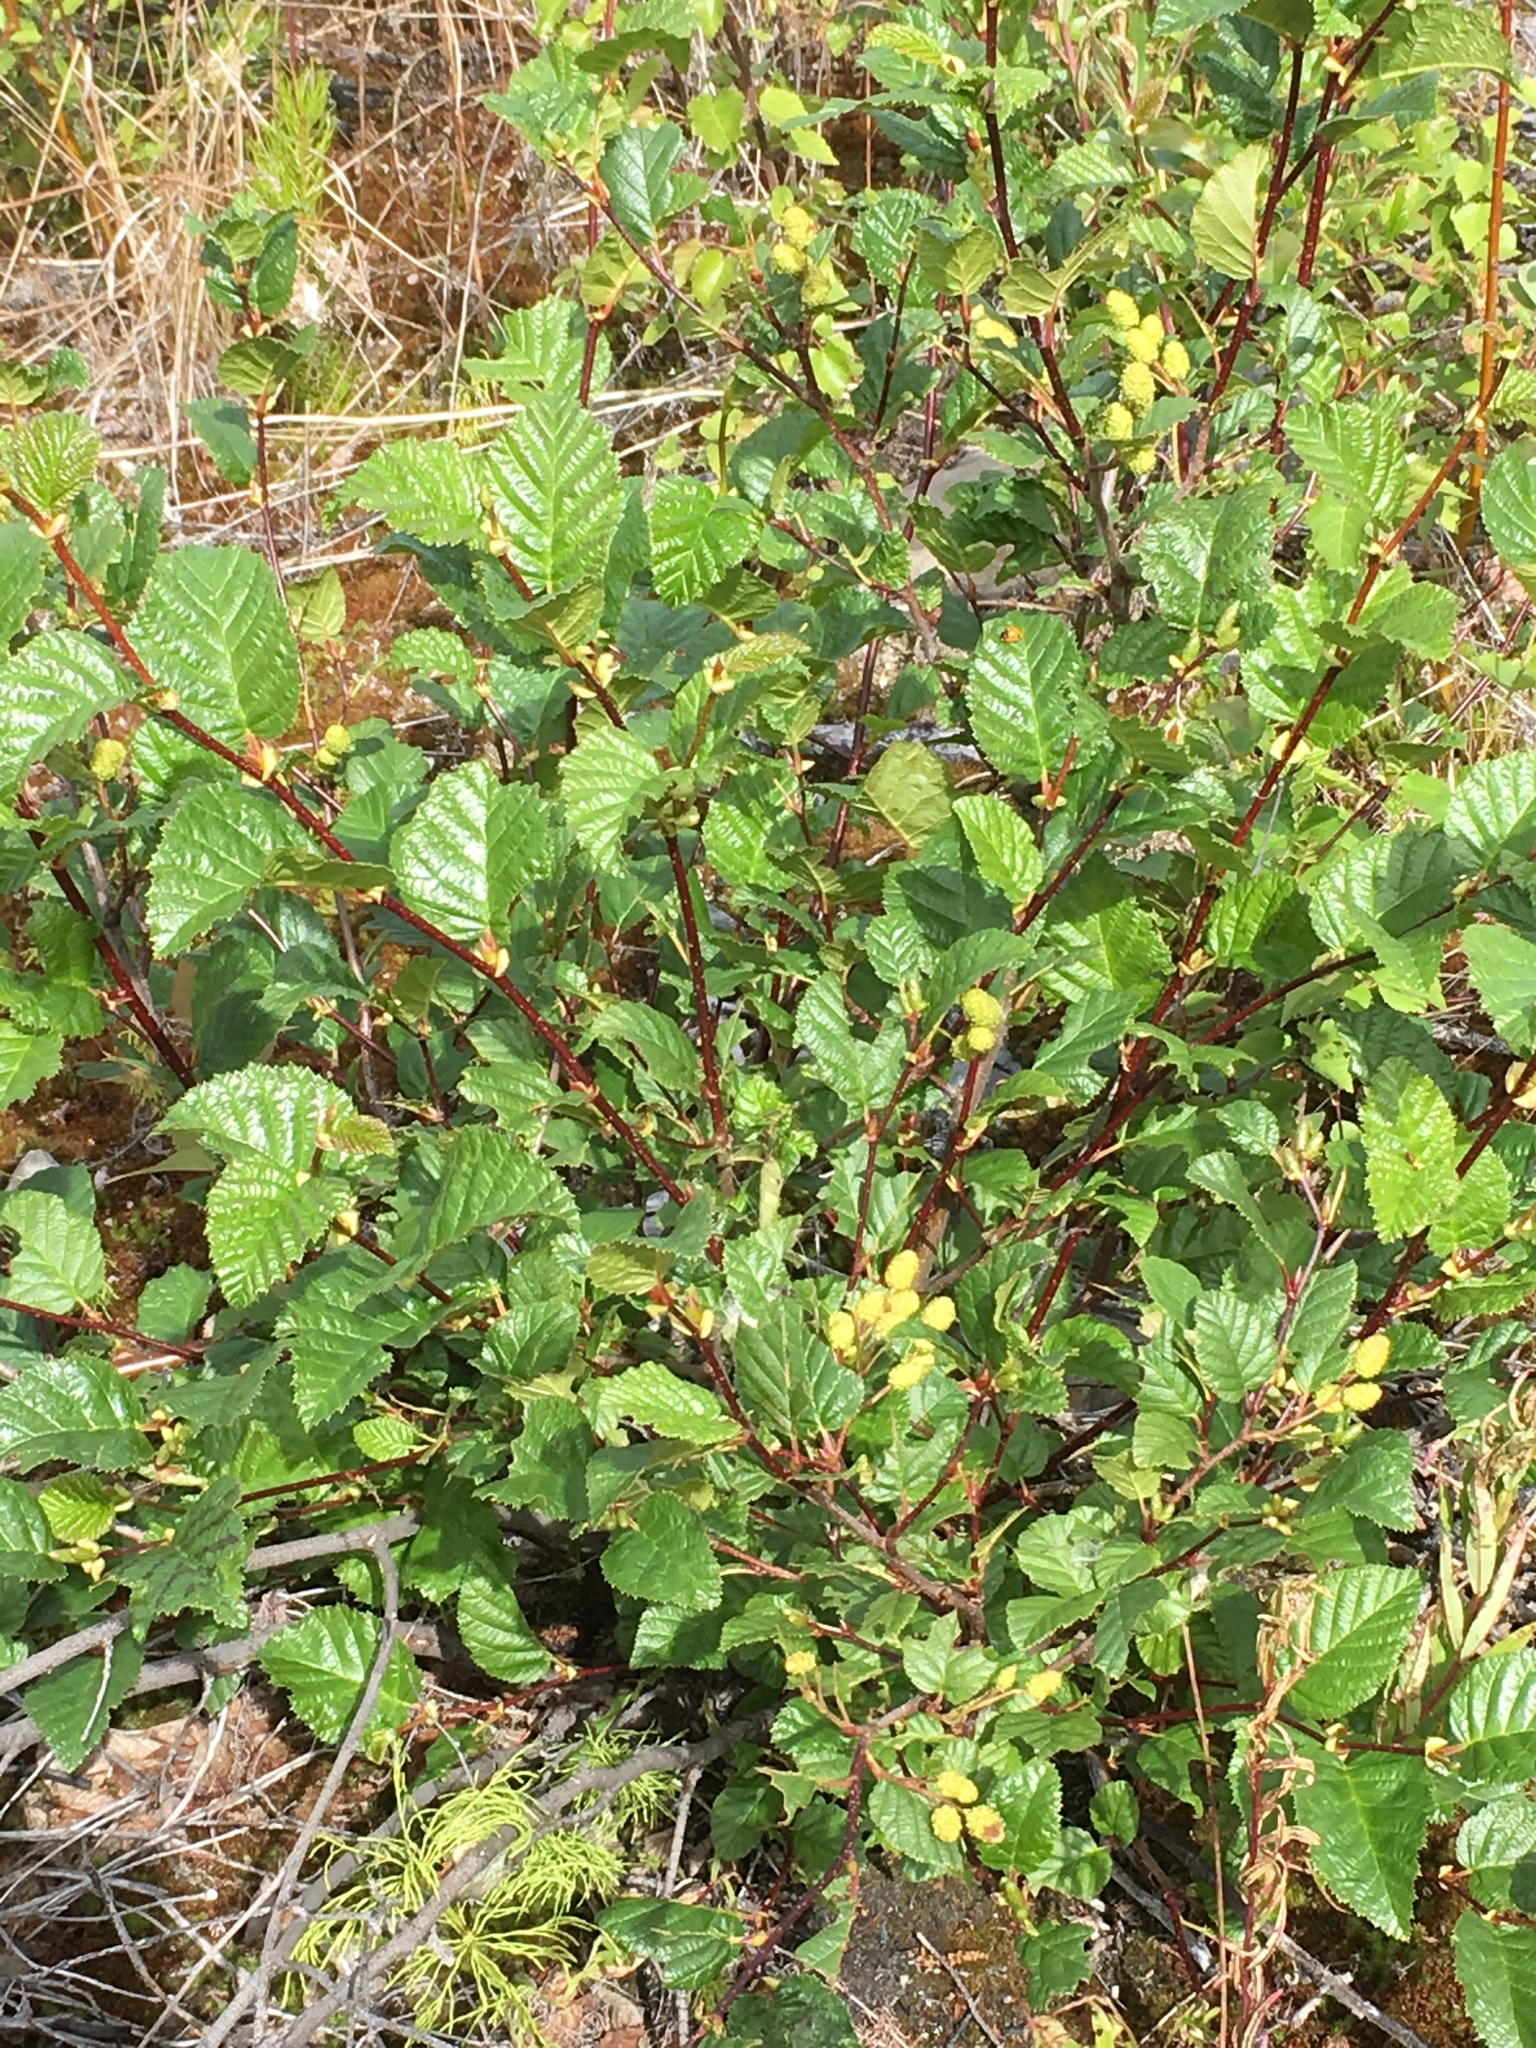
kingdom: Plantae
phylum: Tracheophyta
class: Magnoliopsida
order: Fagales
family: Betulaceae
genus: Alnus
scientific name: Alnus alnobetula
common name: Green alder
